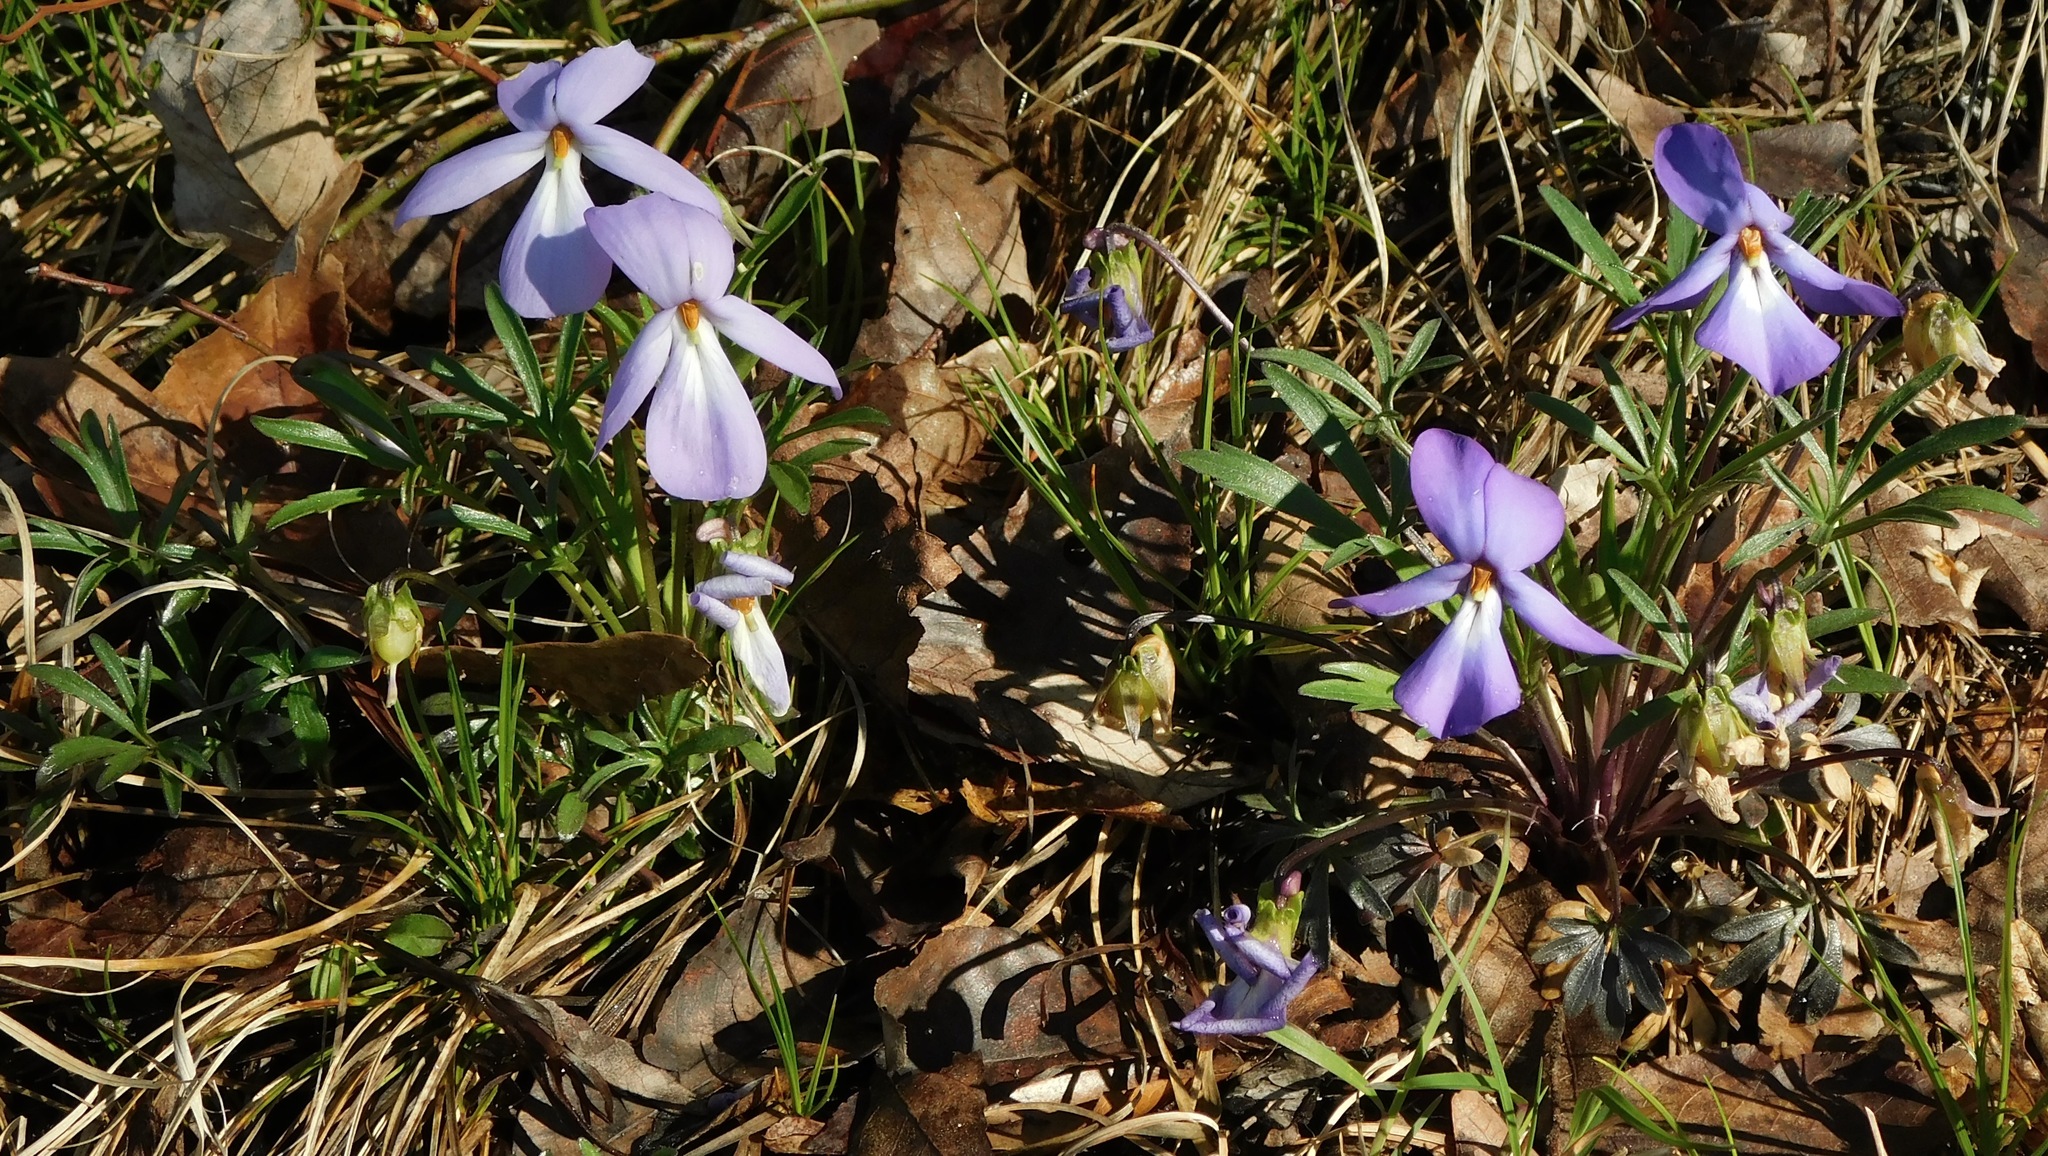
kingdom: Plantae
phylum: Tracheophyta
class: Magnoliopsida
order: Malpighiales
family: Violaceae
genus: Viola
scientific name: Viola pedata
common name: Pansy violet
